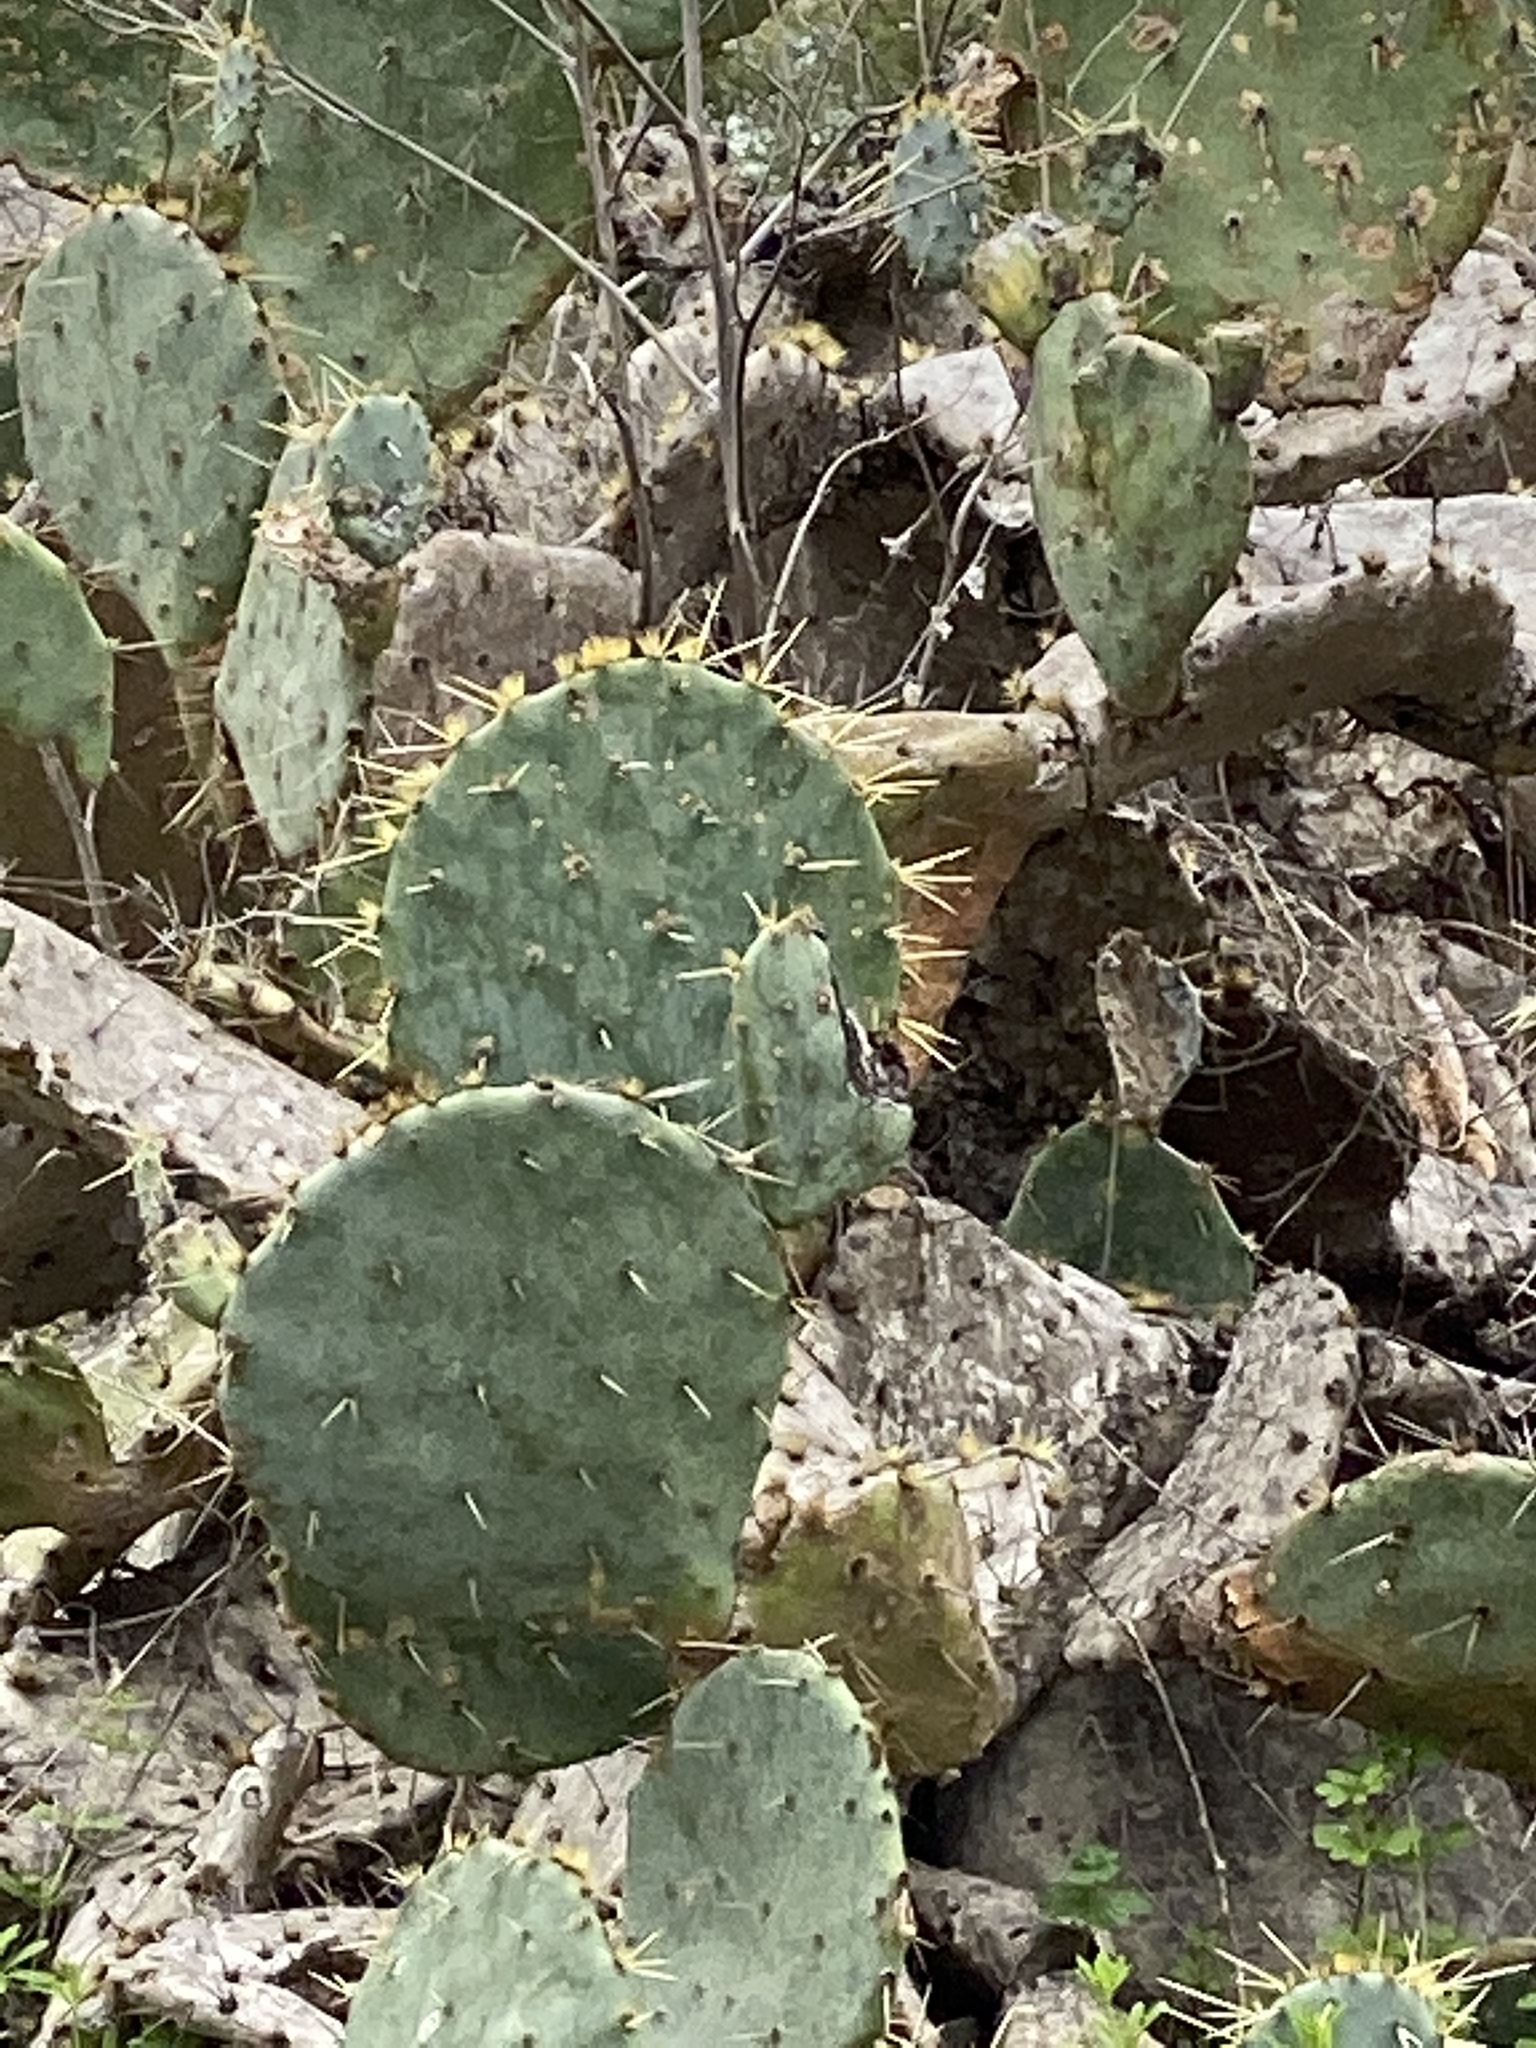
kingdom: Plantae
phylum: Tracheophyta
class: Magnoliopsida
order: Caryophyllales
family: Cactaceae
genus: Opuntia
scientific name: Opuntia engelmannii
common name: Cactus-apple
